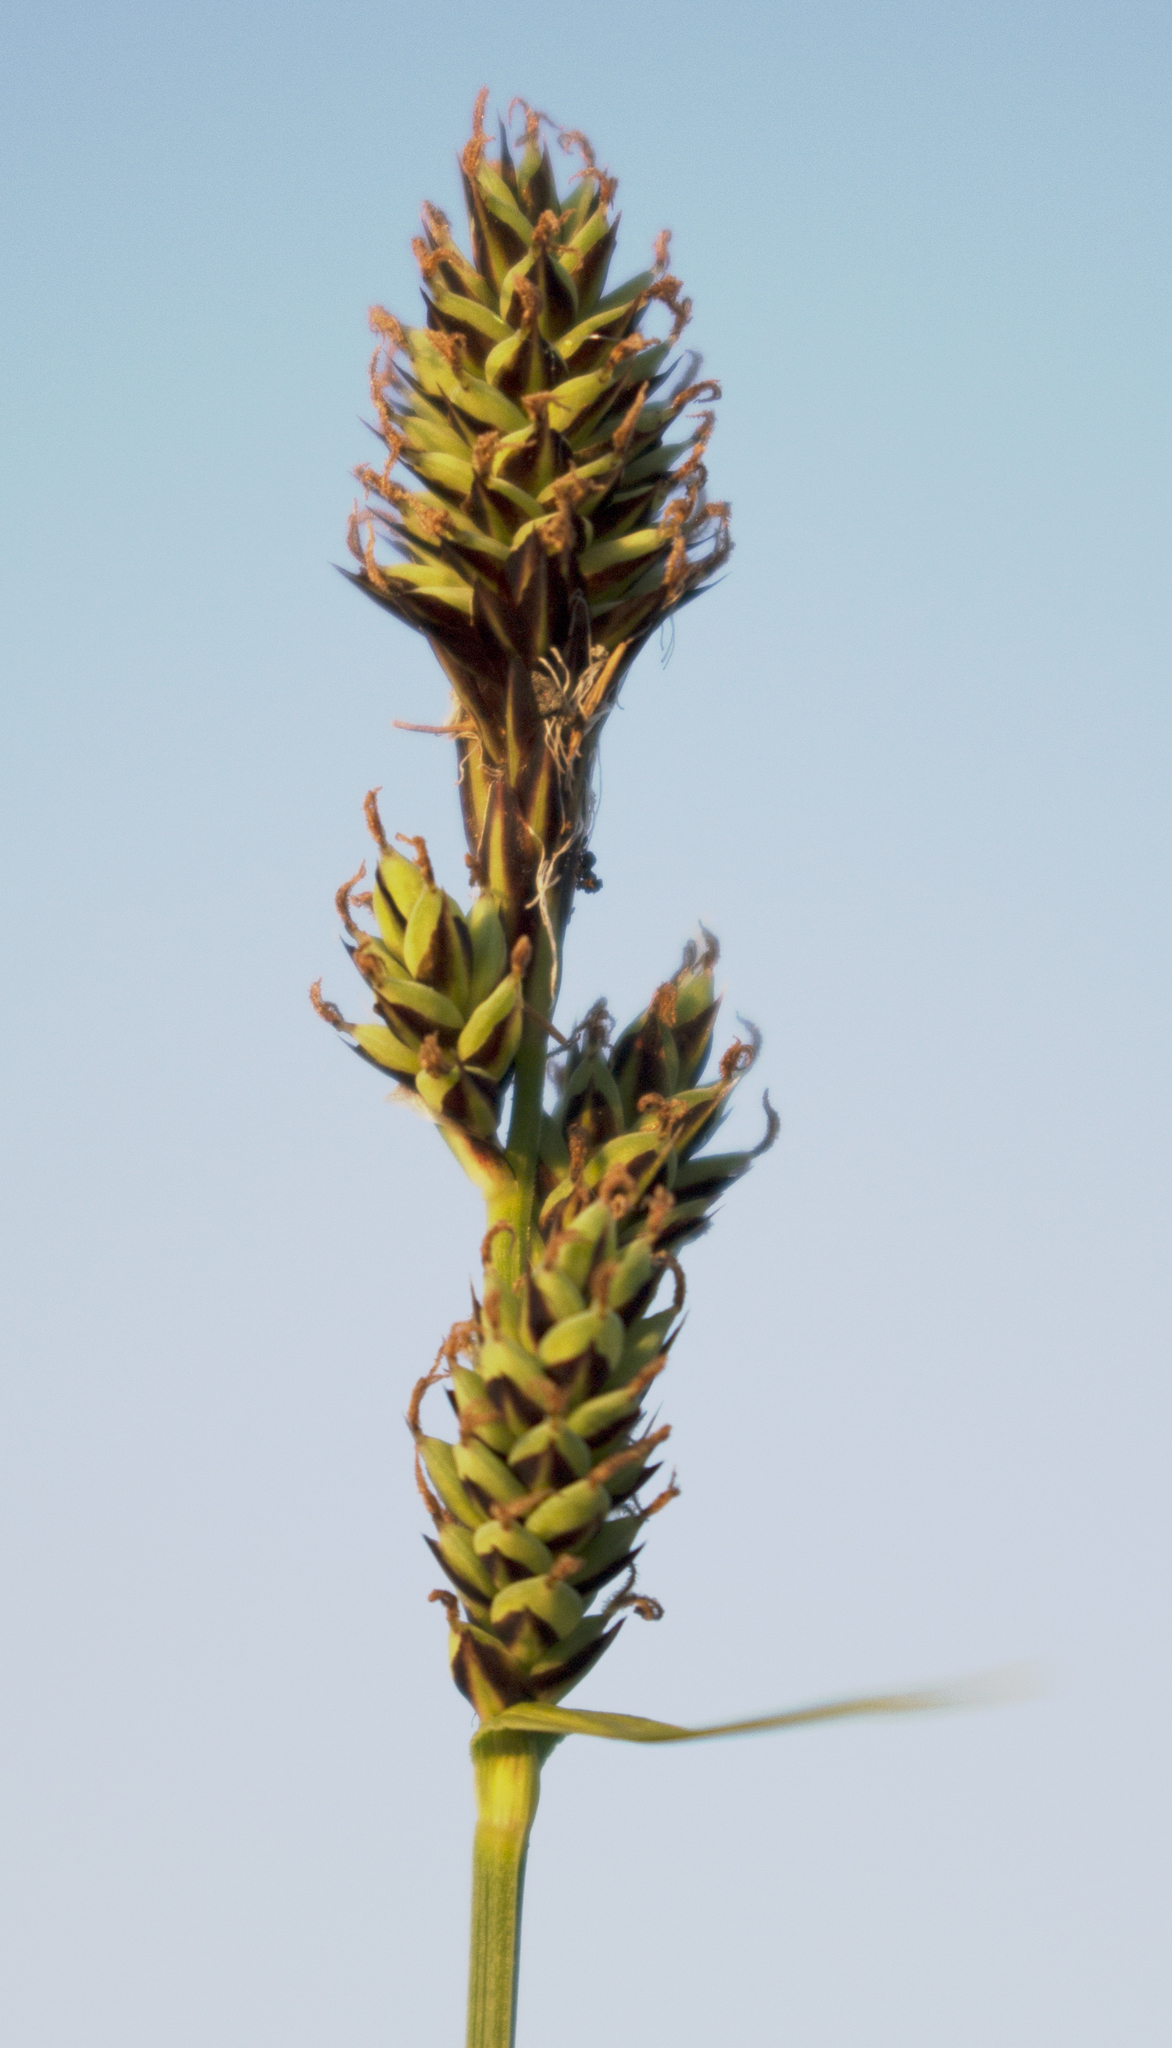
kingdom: Plantae
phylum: Tracheophyta
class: Liliopsida
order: Poales
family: Cyperaceae
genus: Carex
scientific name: Carex buxbaumii
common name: Club sedge
